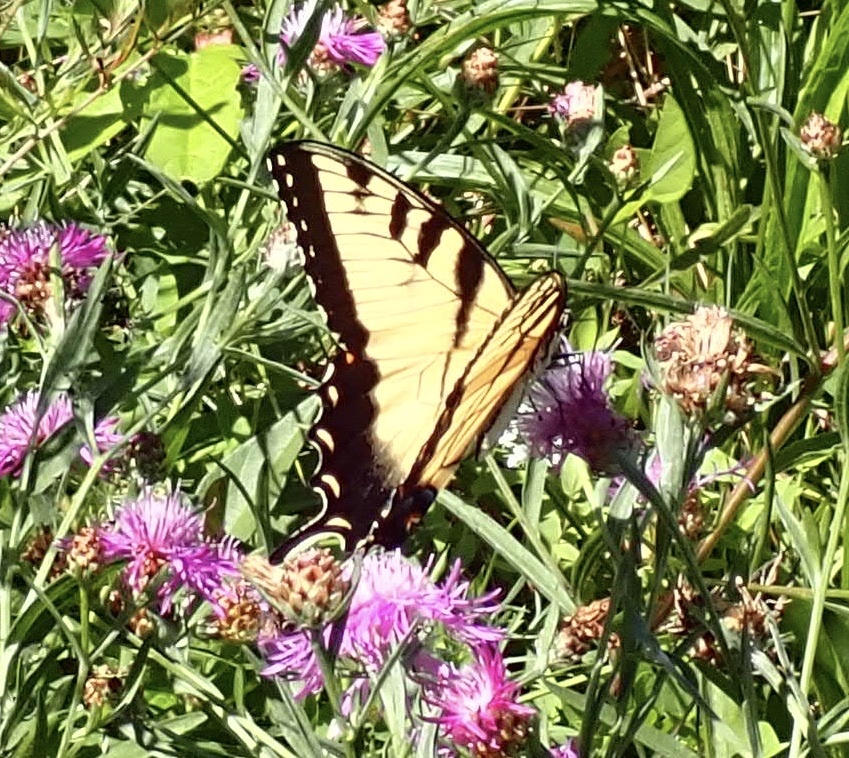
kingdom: Animalia
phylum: Arthropoda
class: Insecta
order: Lepidoptera
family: Papilionidae
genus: Papilio
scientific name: Papilio glaucus
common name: Tiger swallowtail
